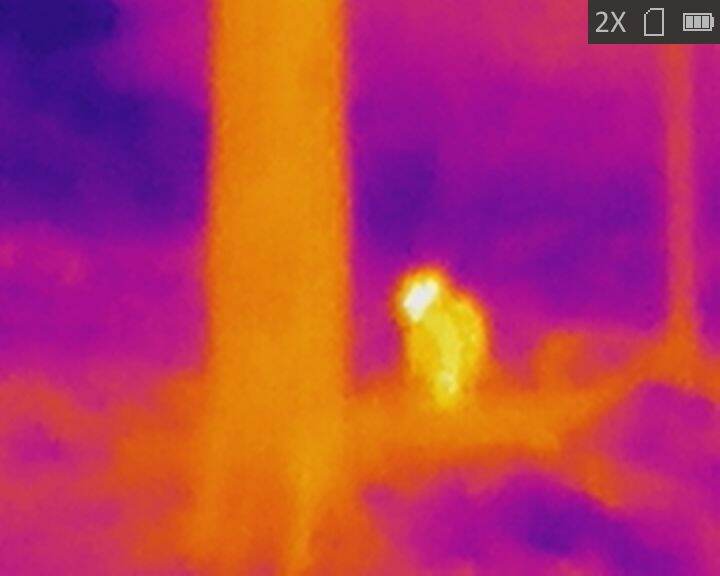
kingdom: Animalia
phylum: Chordata
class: Mammalia
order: Carnivora
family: Felidae
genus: Felis
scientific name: Felis catus
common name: Domestic cat
